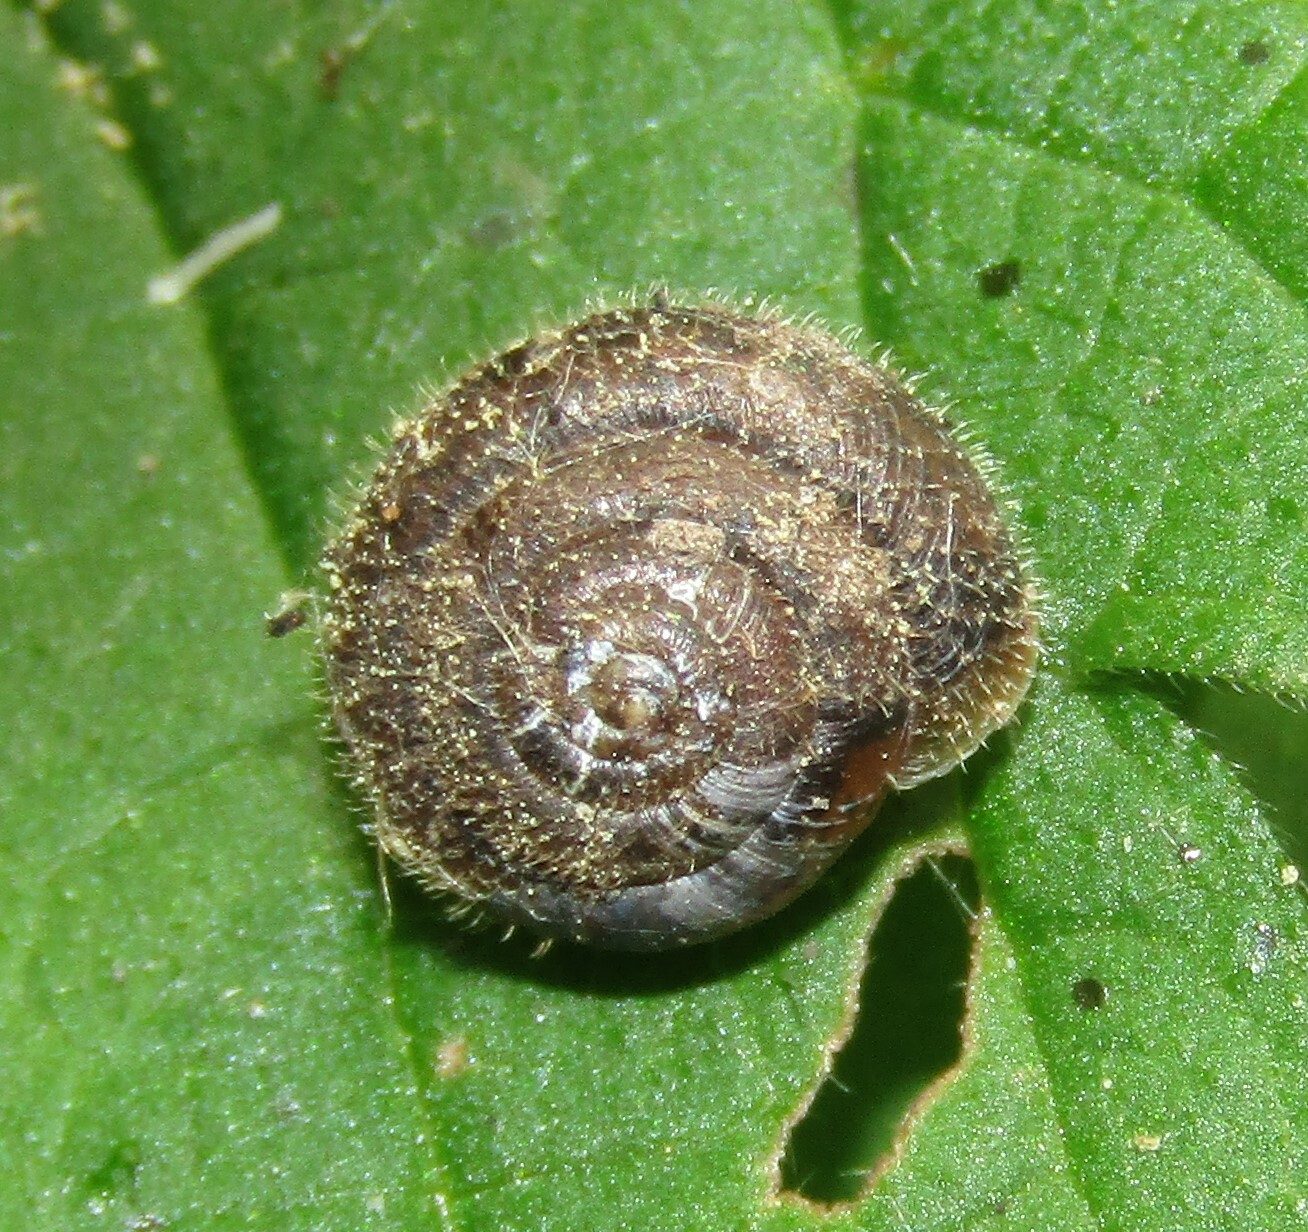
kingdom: Animalia
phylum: Mollusca
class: Gastropoda
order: Stylommatophora
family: Hygromiidae
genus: Trochulus
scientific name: Trochulus hispidus
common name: Hairy snail
